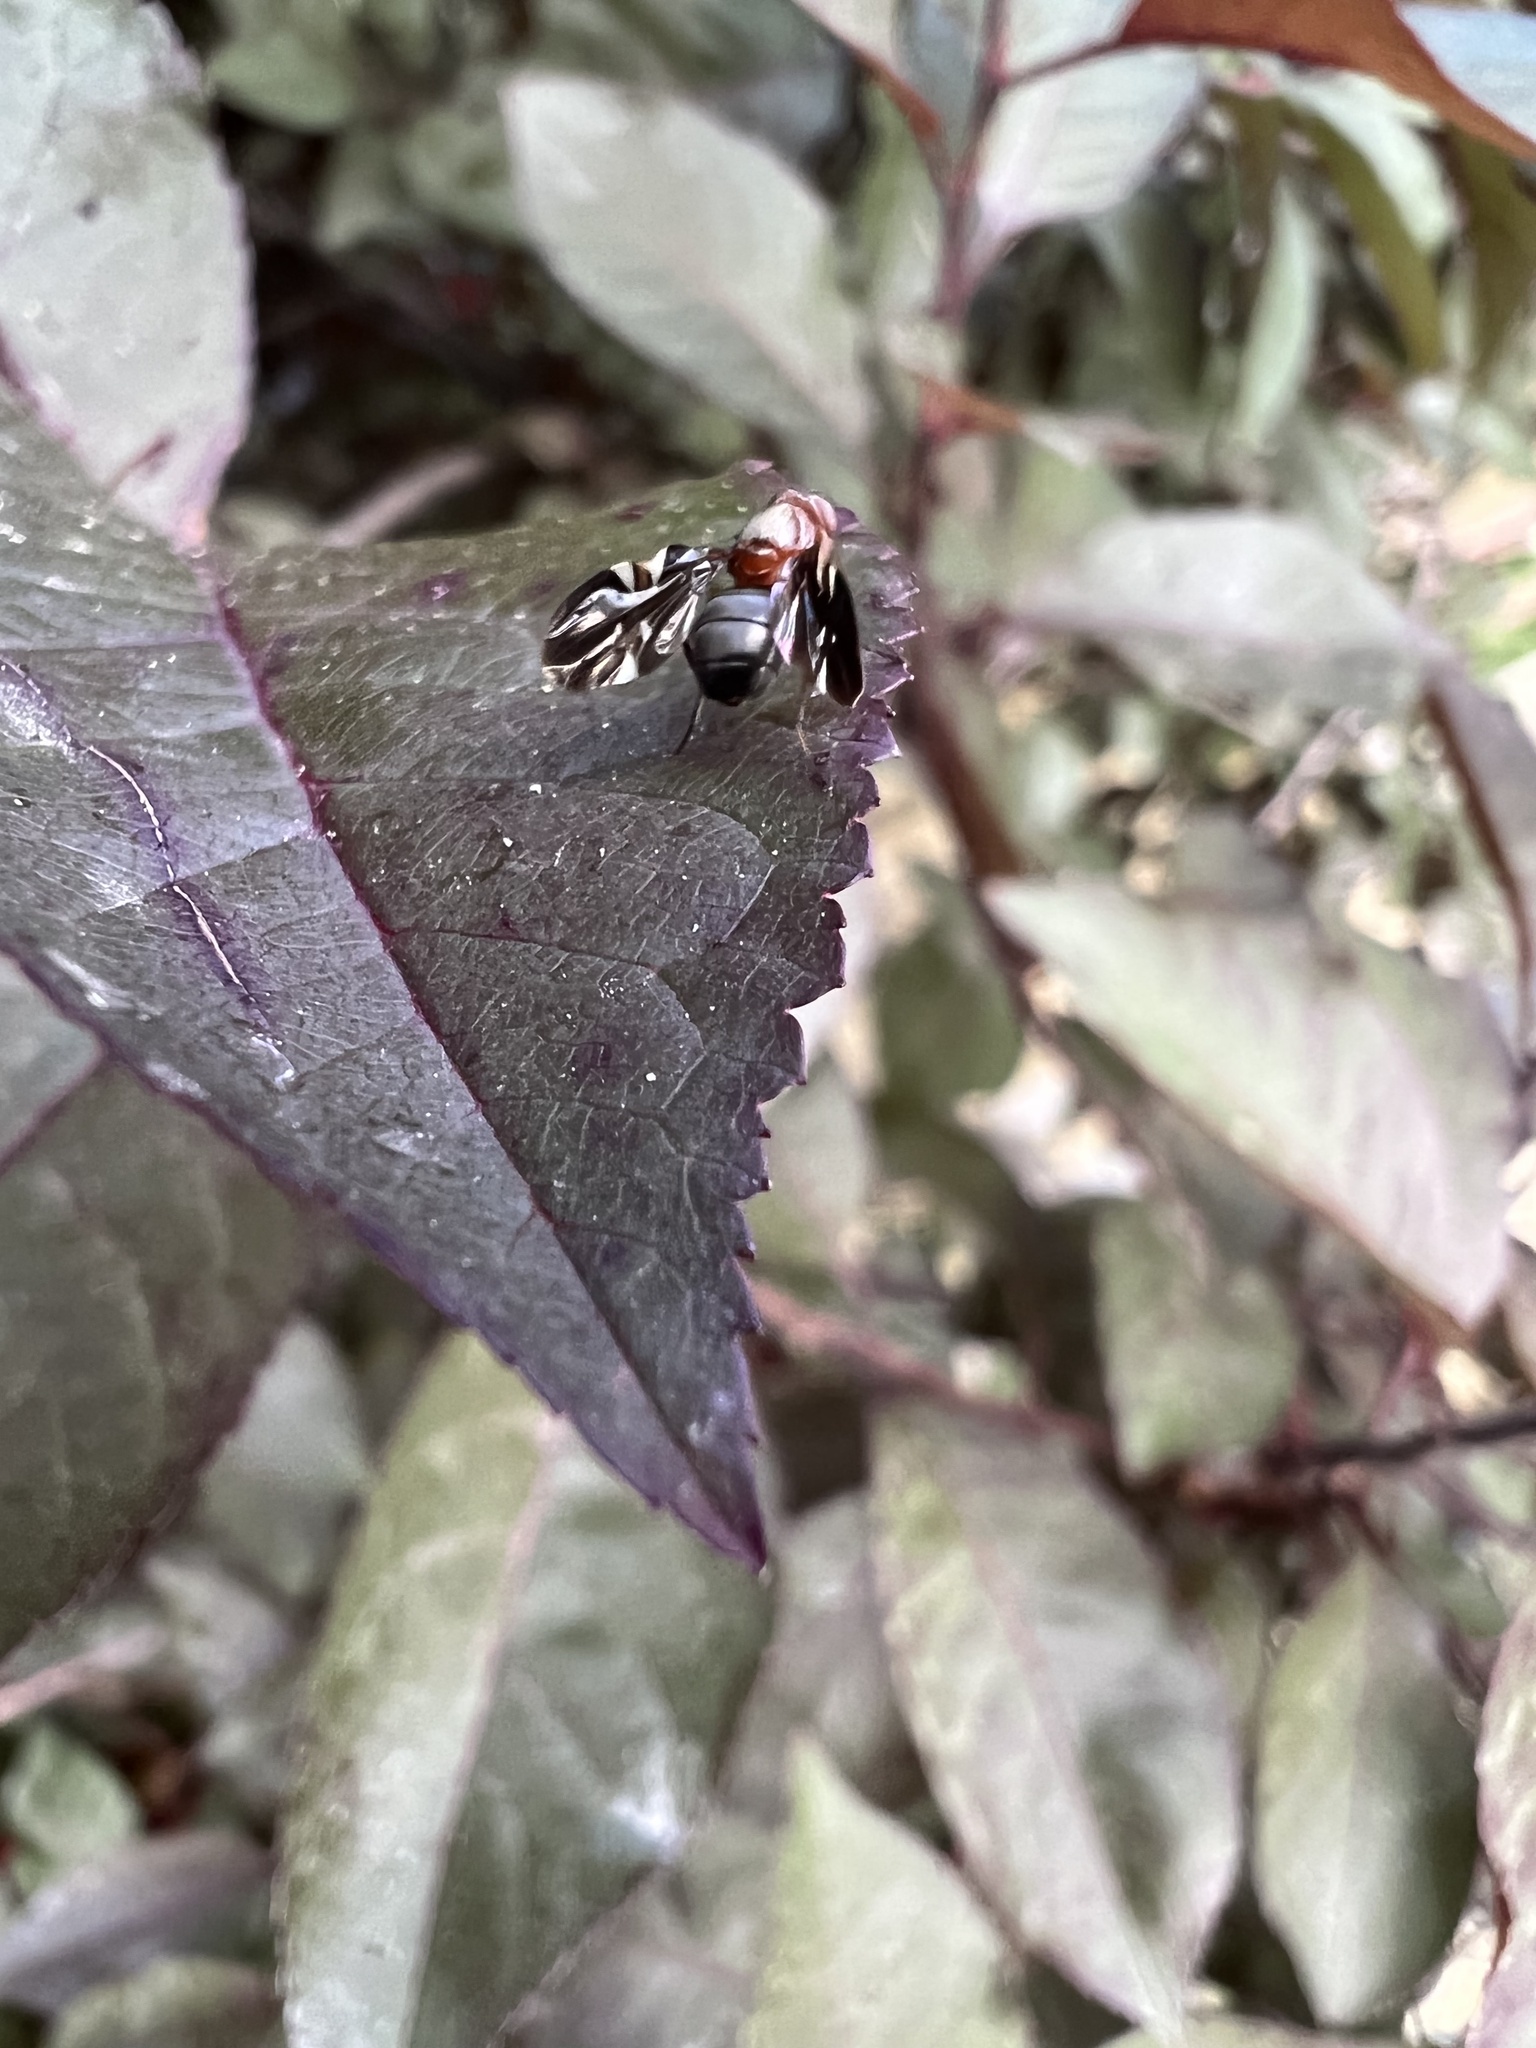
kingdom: Animalia
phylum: Arthropoda
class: Insecta
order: Diptera
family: Ulidiidae
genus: Delphinia
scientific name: Delphinia picta
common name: Common picture-winged fly
